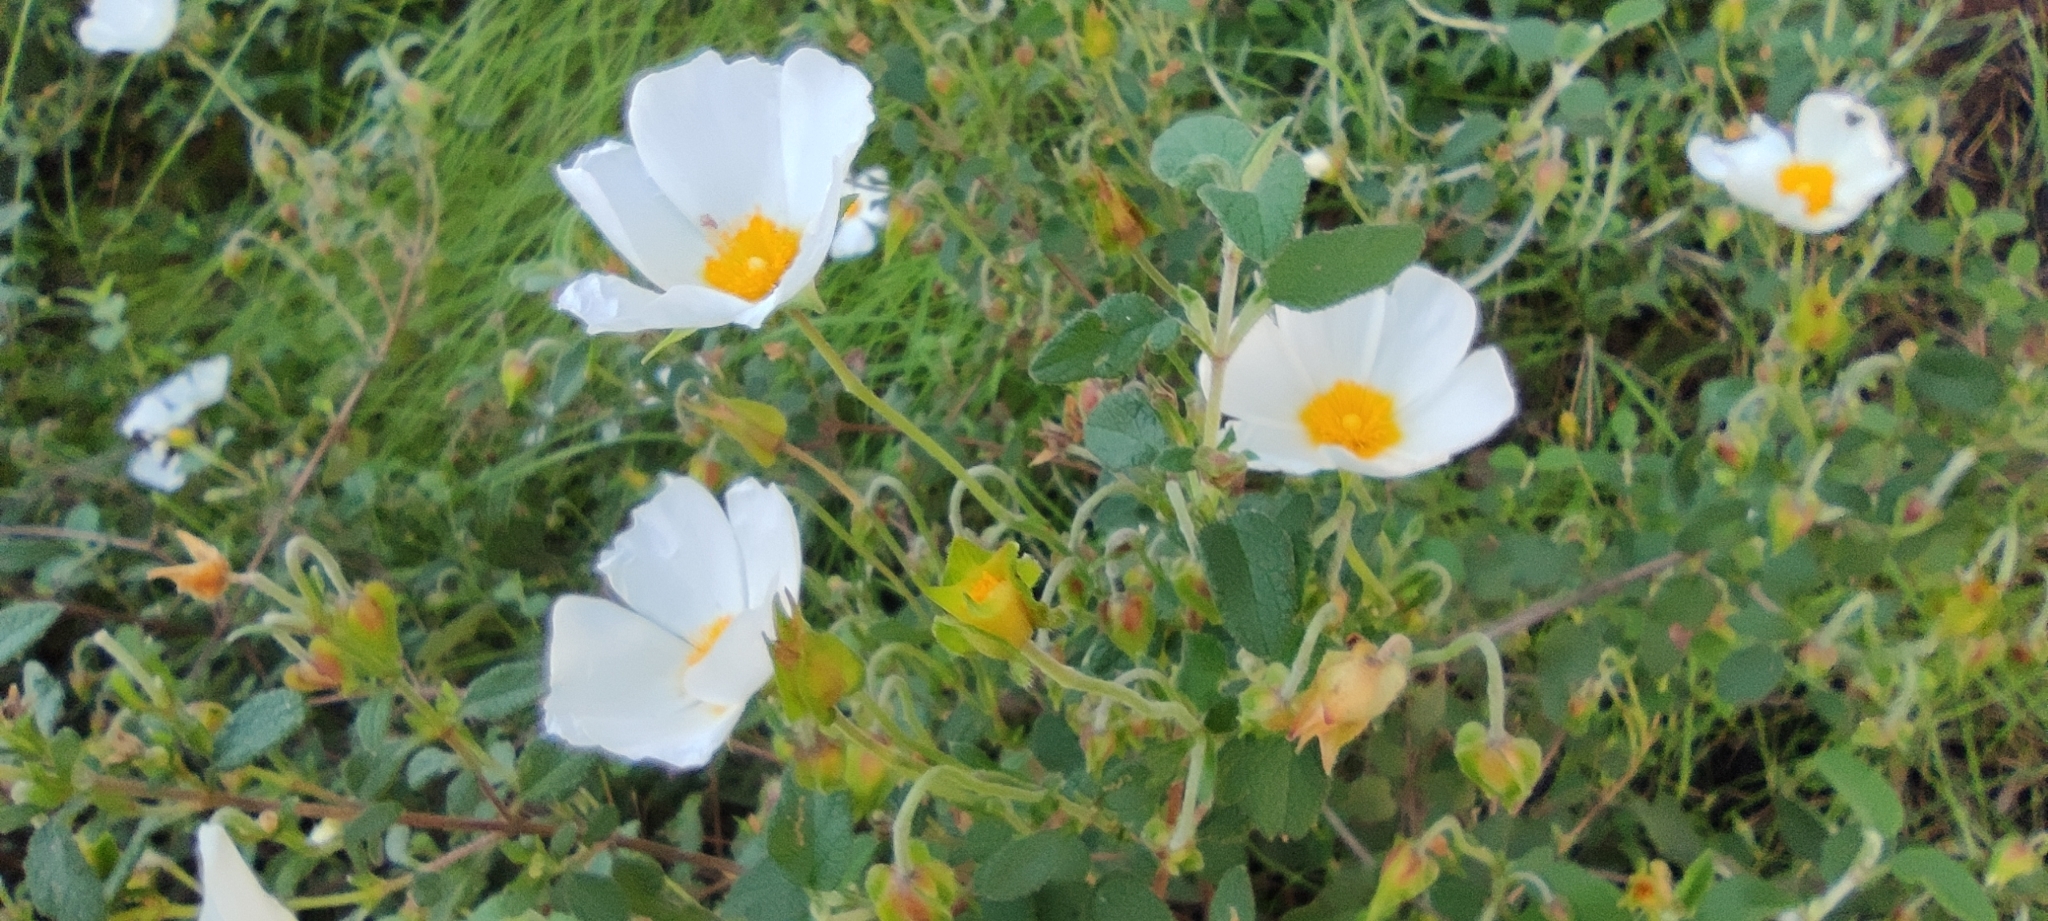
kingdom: Plantae
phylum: Tracheophyta
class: Magnoliopsida
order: Malvales
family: Cistaceae
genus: Cistus
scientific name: Cistus salviifolius
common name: Salvia cistus
